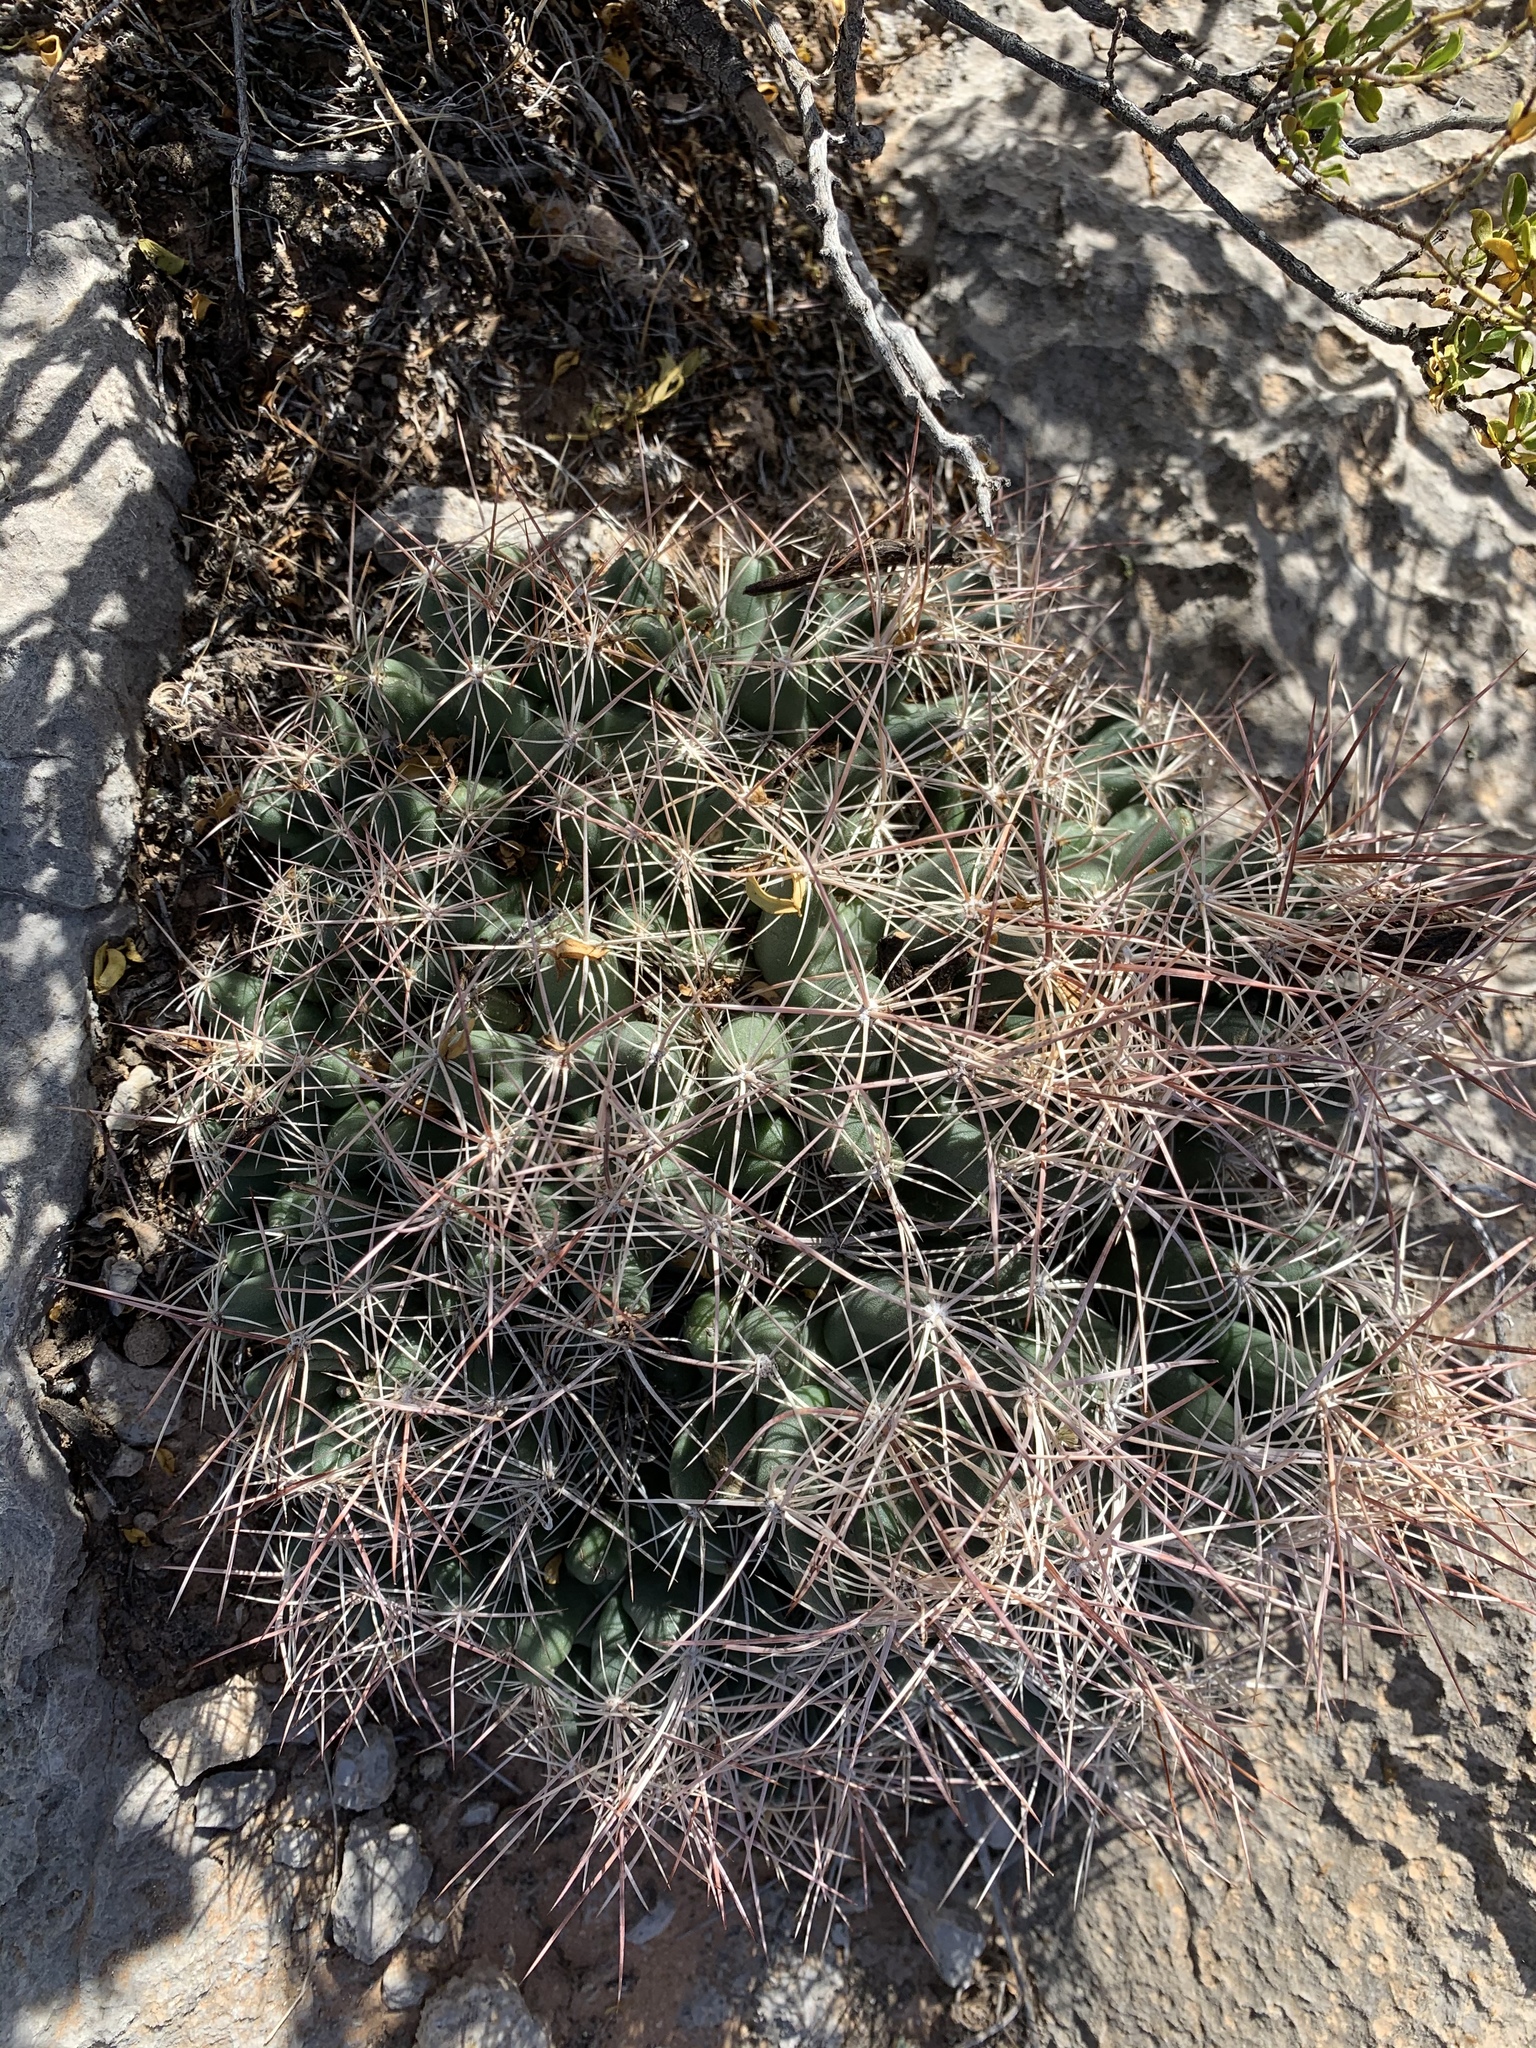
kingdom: Plantae
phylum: Tracheophyta
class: Magnoliopsida
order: Caryophyllales
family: Cactaceae
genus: Coryphantha
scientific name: Coryphantha macromeris
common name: Nipple beehive cactus
